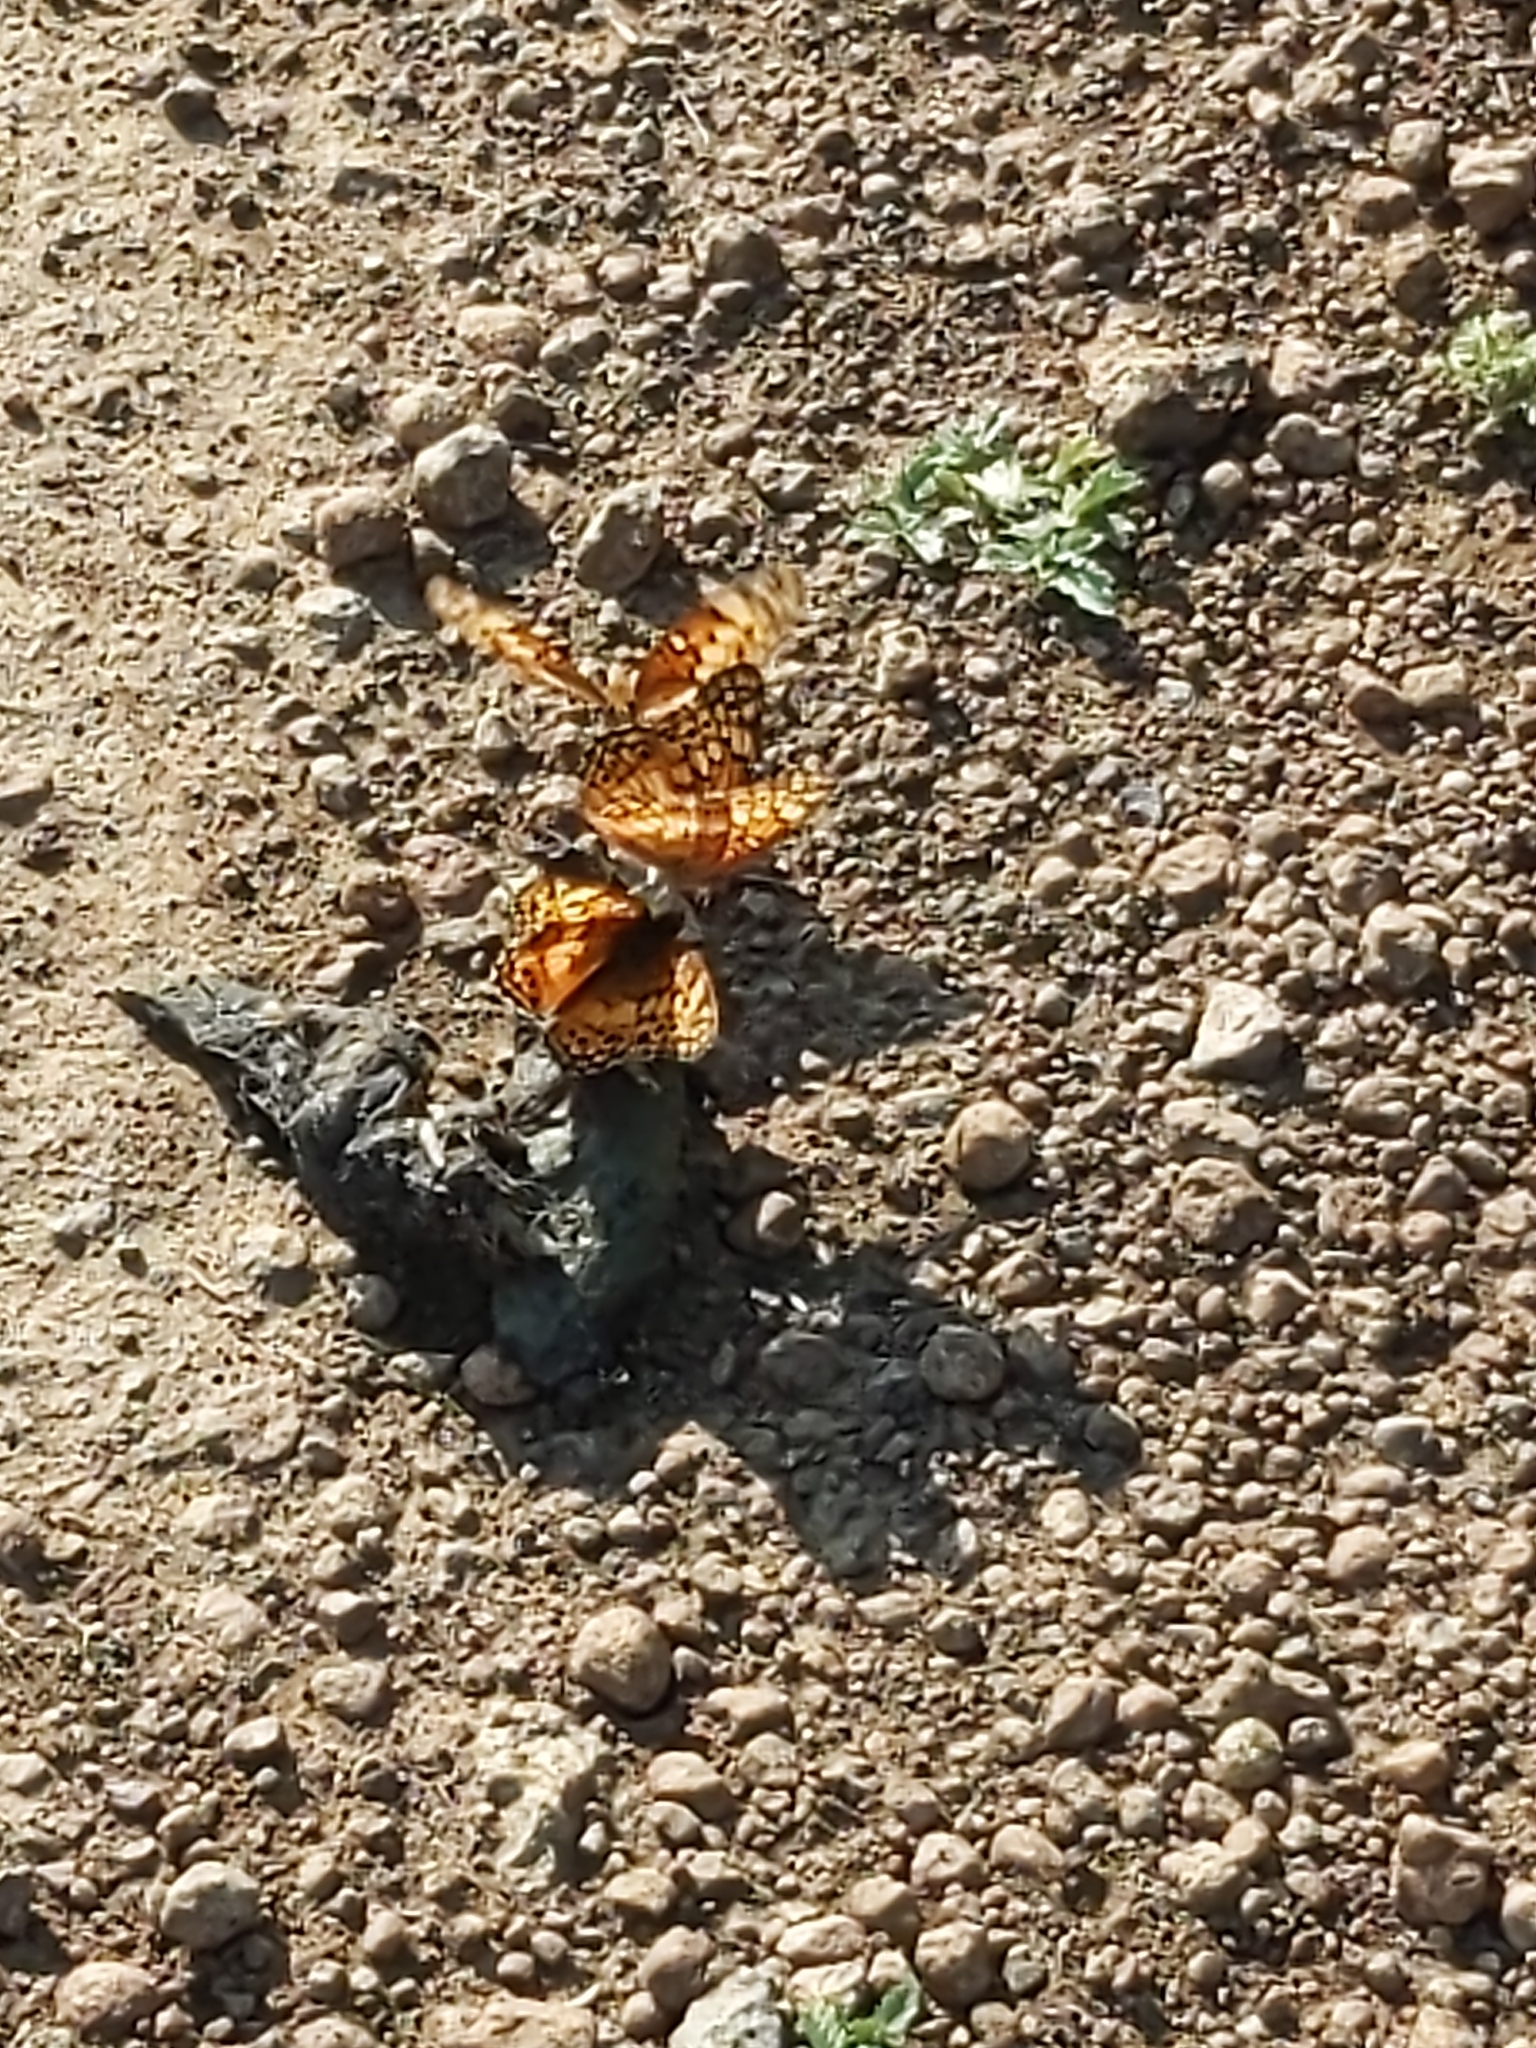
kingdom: Animalia
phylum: Arthropoda
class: Insecta
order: Lepidoptera
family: Nymphalidae
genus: Euptoieta
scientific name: Euptoieta claudia
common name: Variegated fritillary
